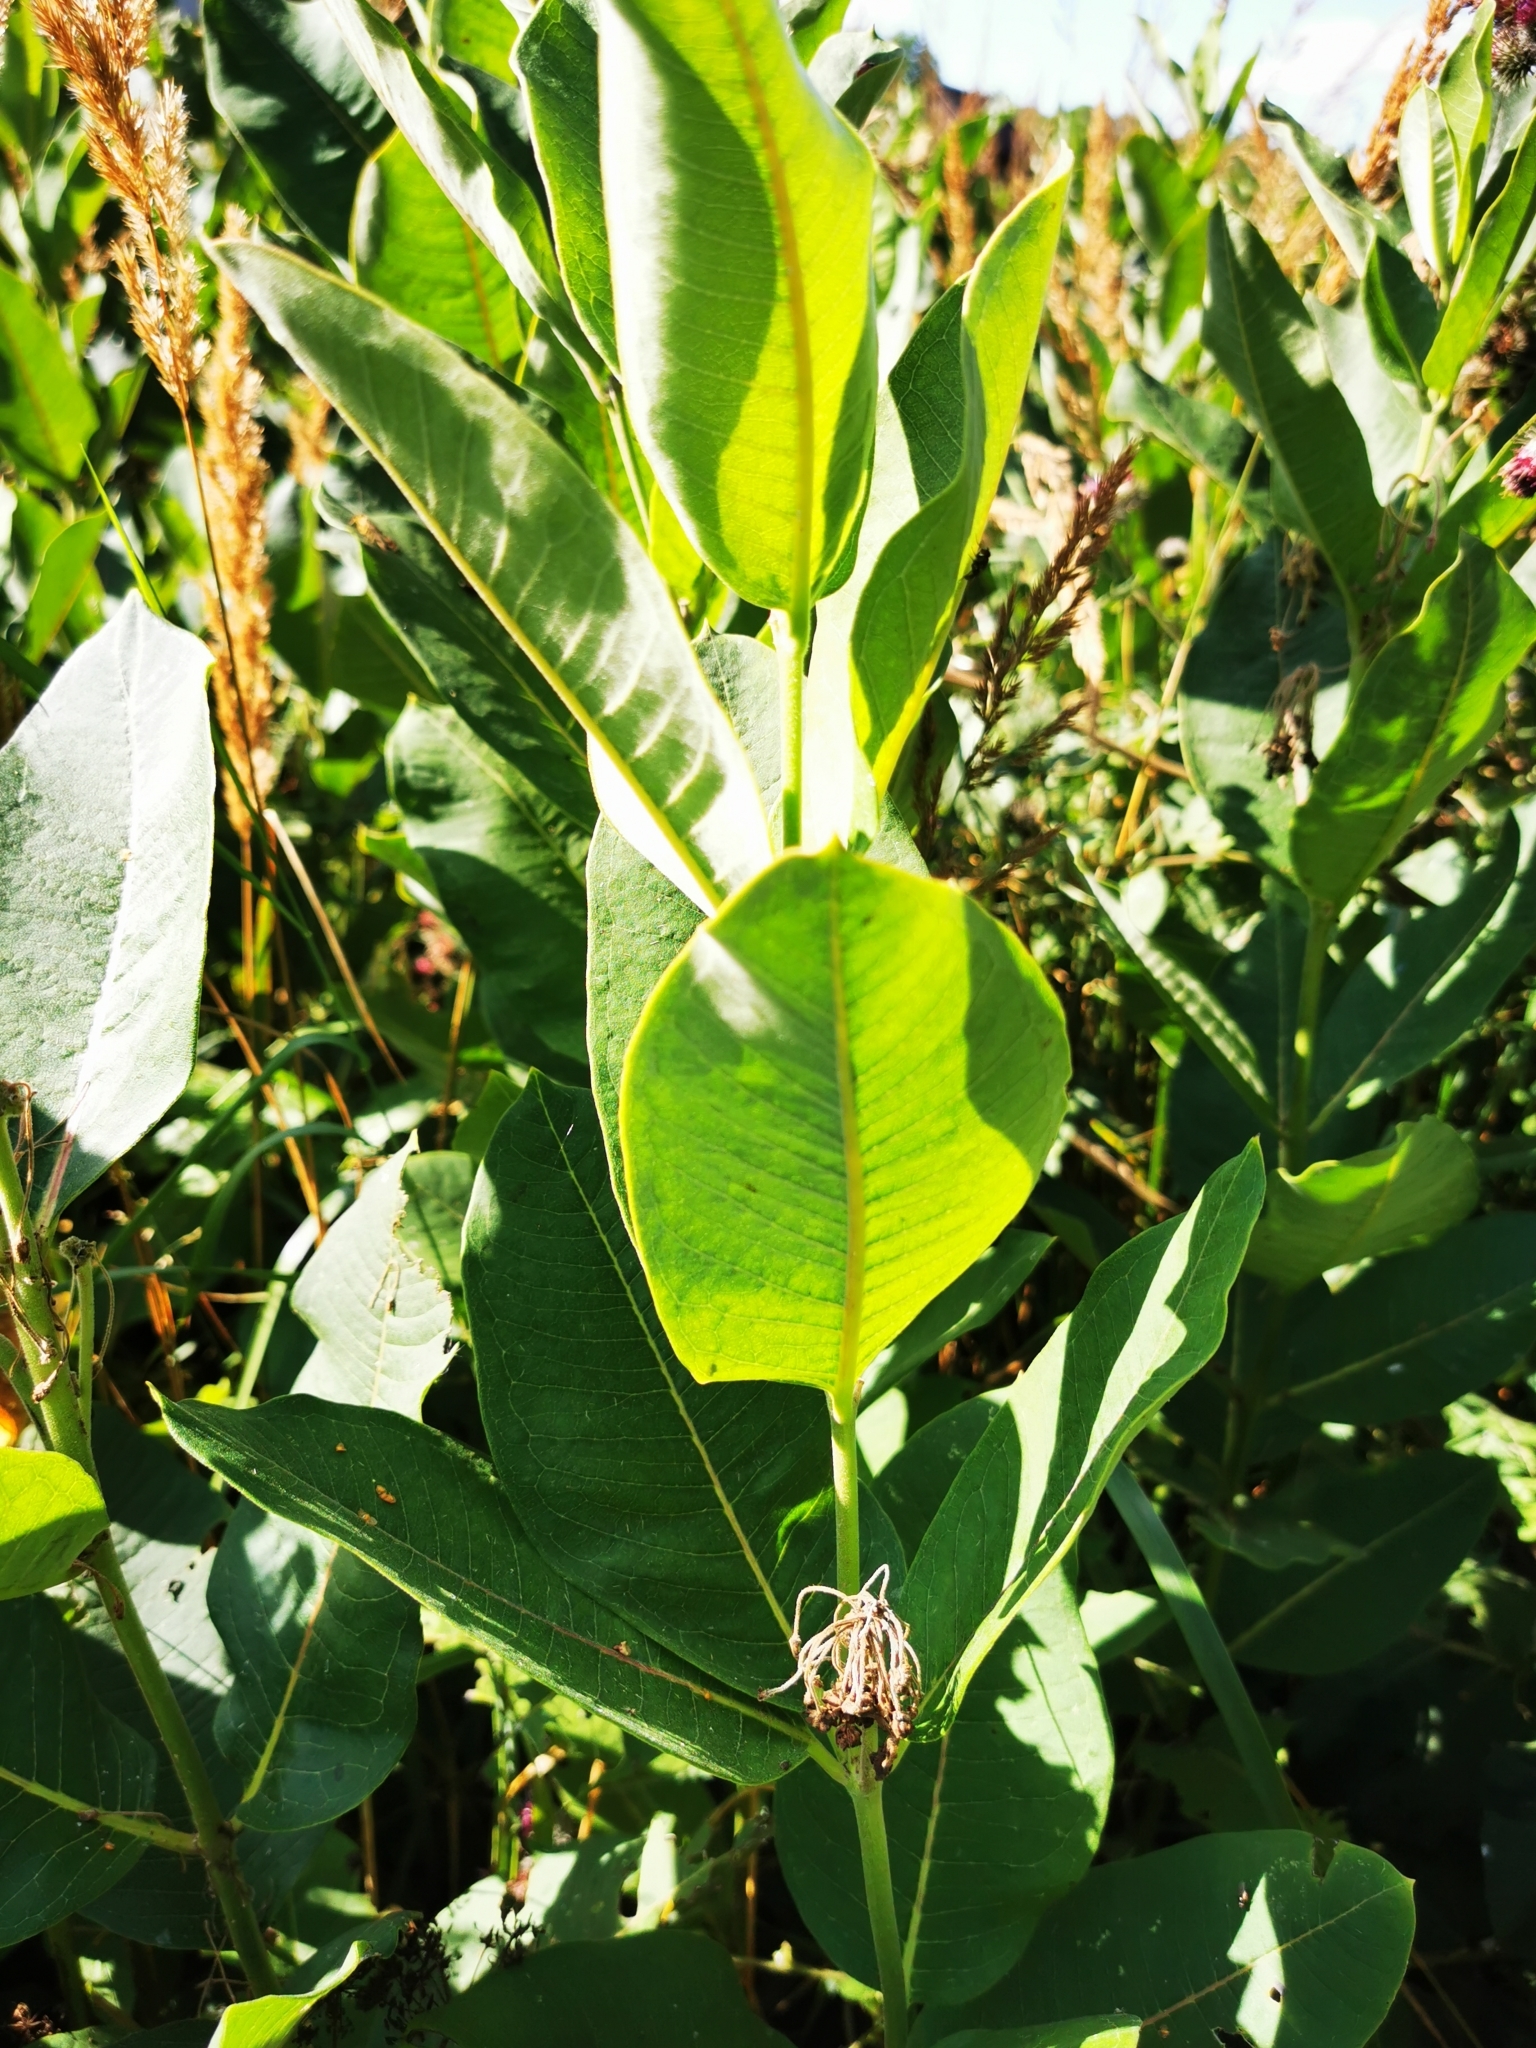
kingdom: Plantae
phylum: Tracheophyta
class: Magnoliopsida
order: Gentianales
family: Apocynaceae
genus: Asclepias
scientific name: Asclepias syriaca
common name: Common milkweed
